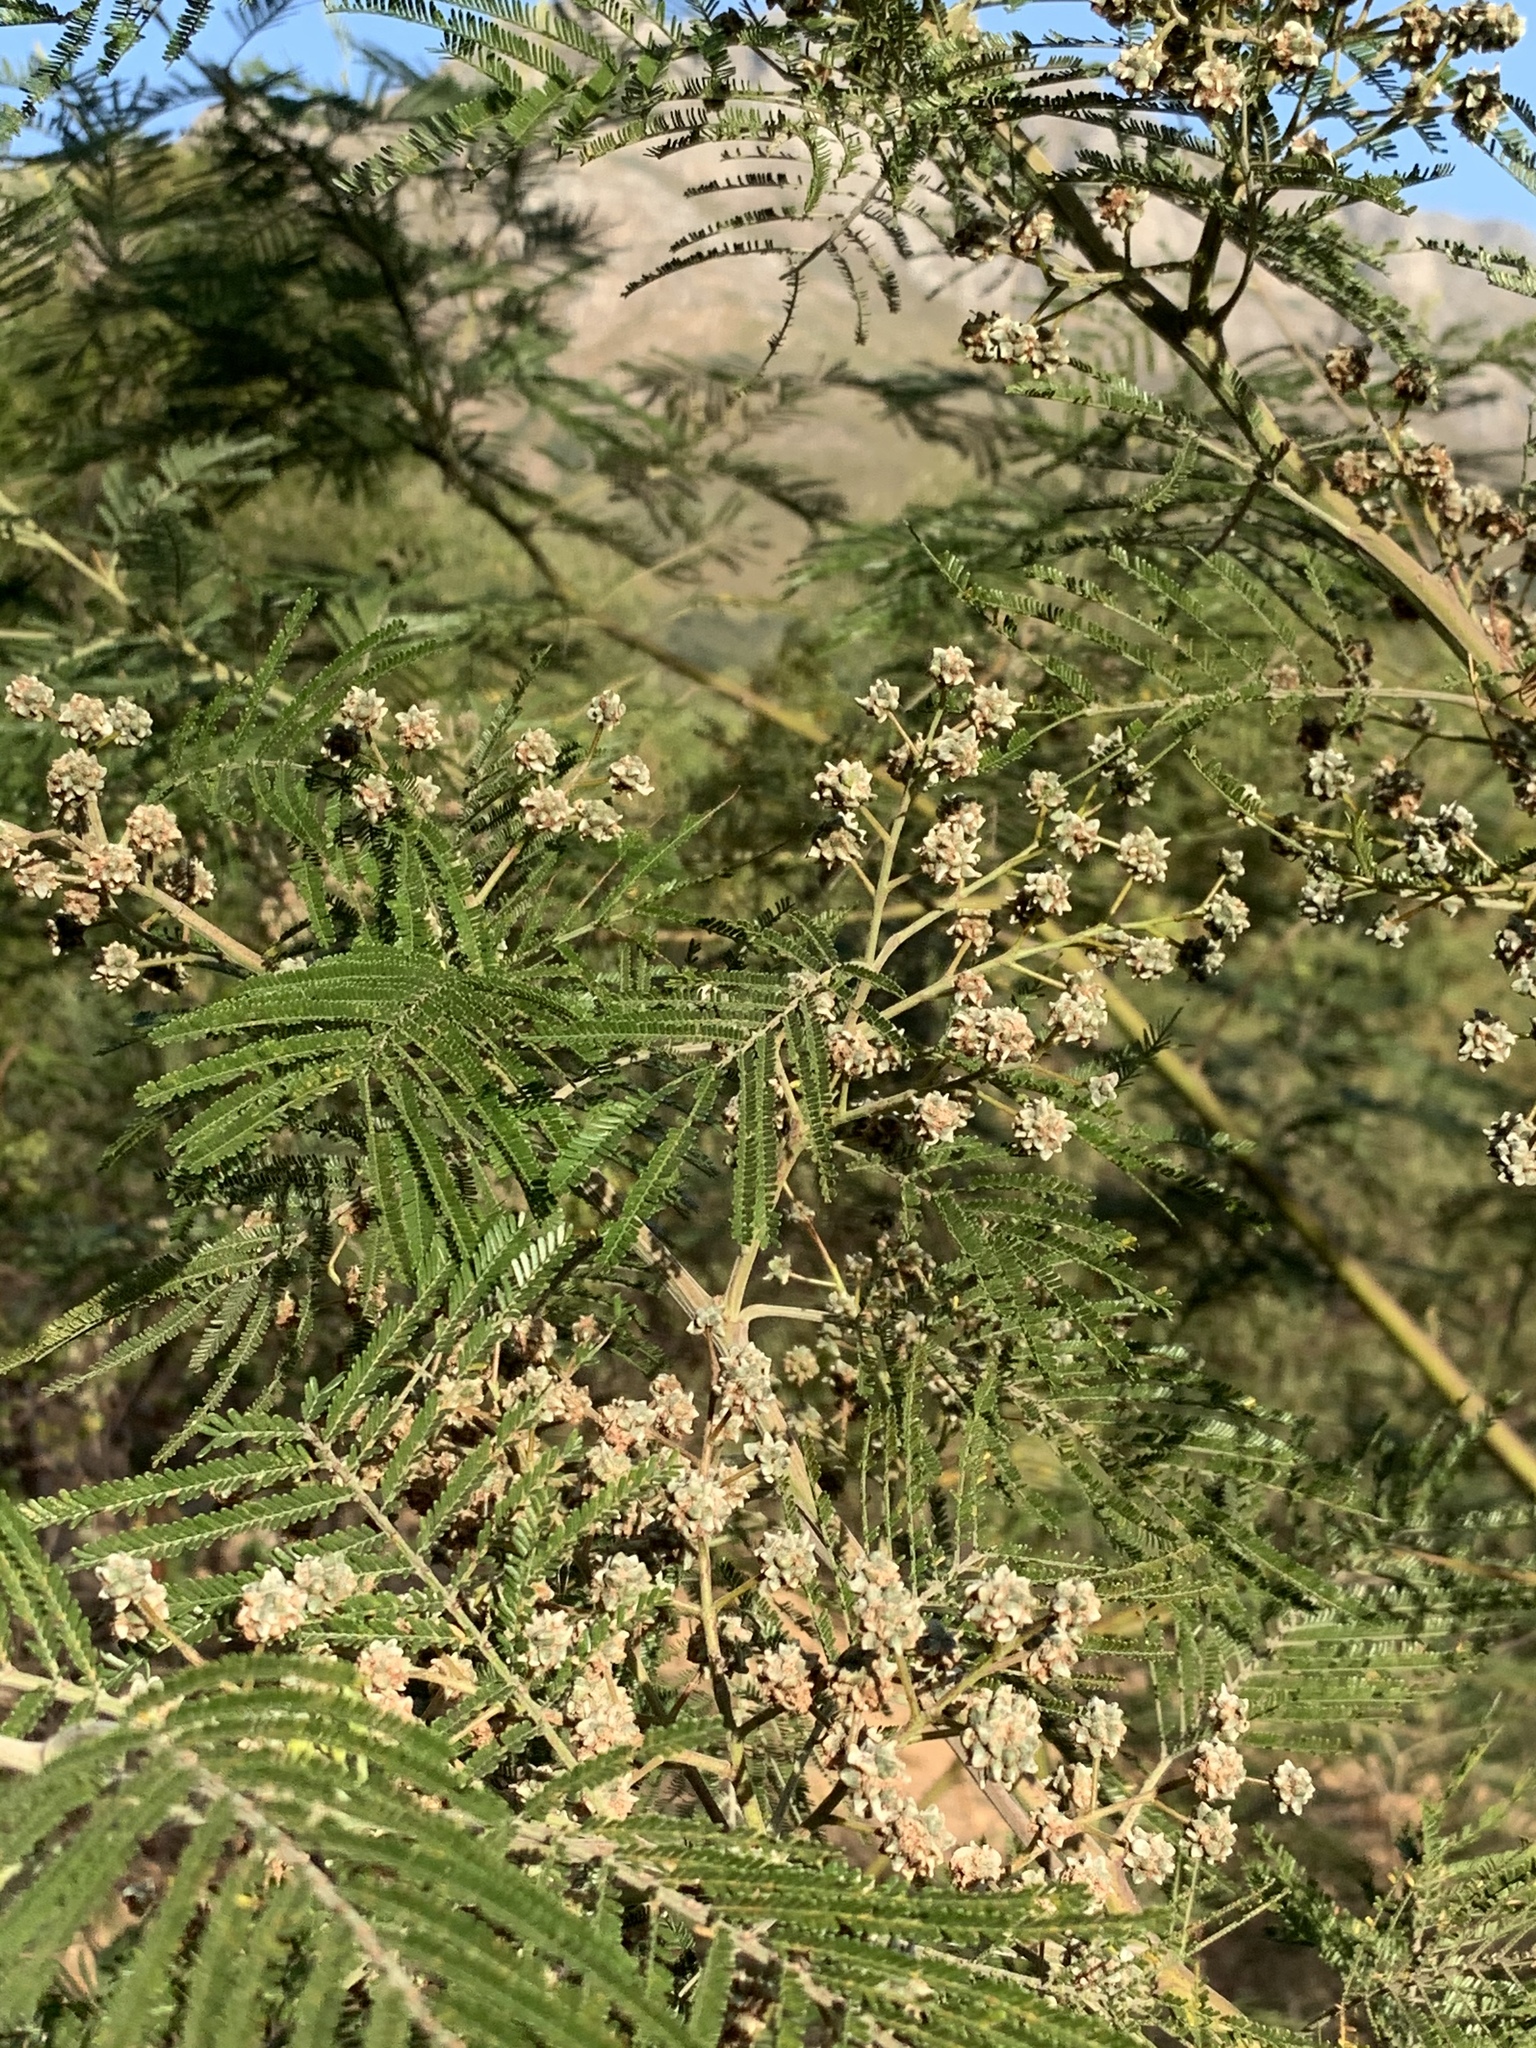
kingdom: Plantae
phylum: Tracheophyta
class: Magnoliopsida
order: Fabales
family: Fabaceae
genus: Acacia
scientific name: Acacia mearnsii
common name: Black wattle
